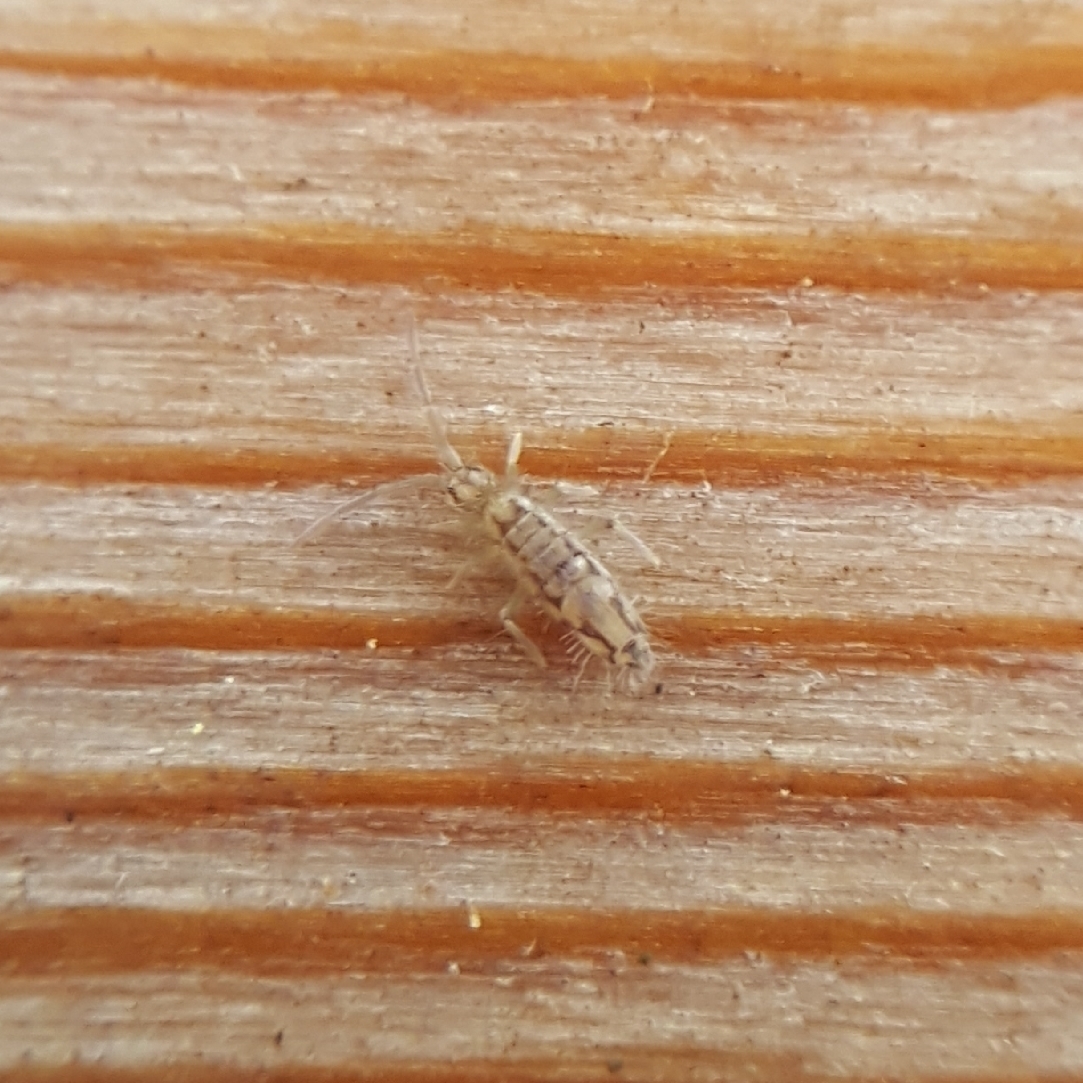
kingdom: Animalia
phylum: Arthropoda
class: Collembola
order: Entomobryomorpha
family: Entomobryidae
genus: Entomobrya
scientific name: Entomobrya katzi
